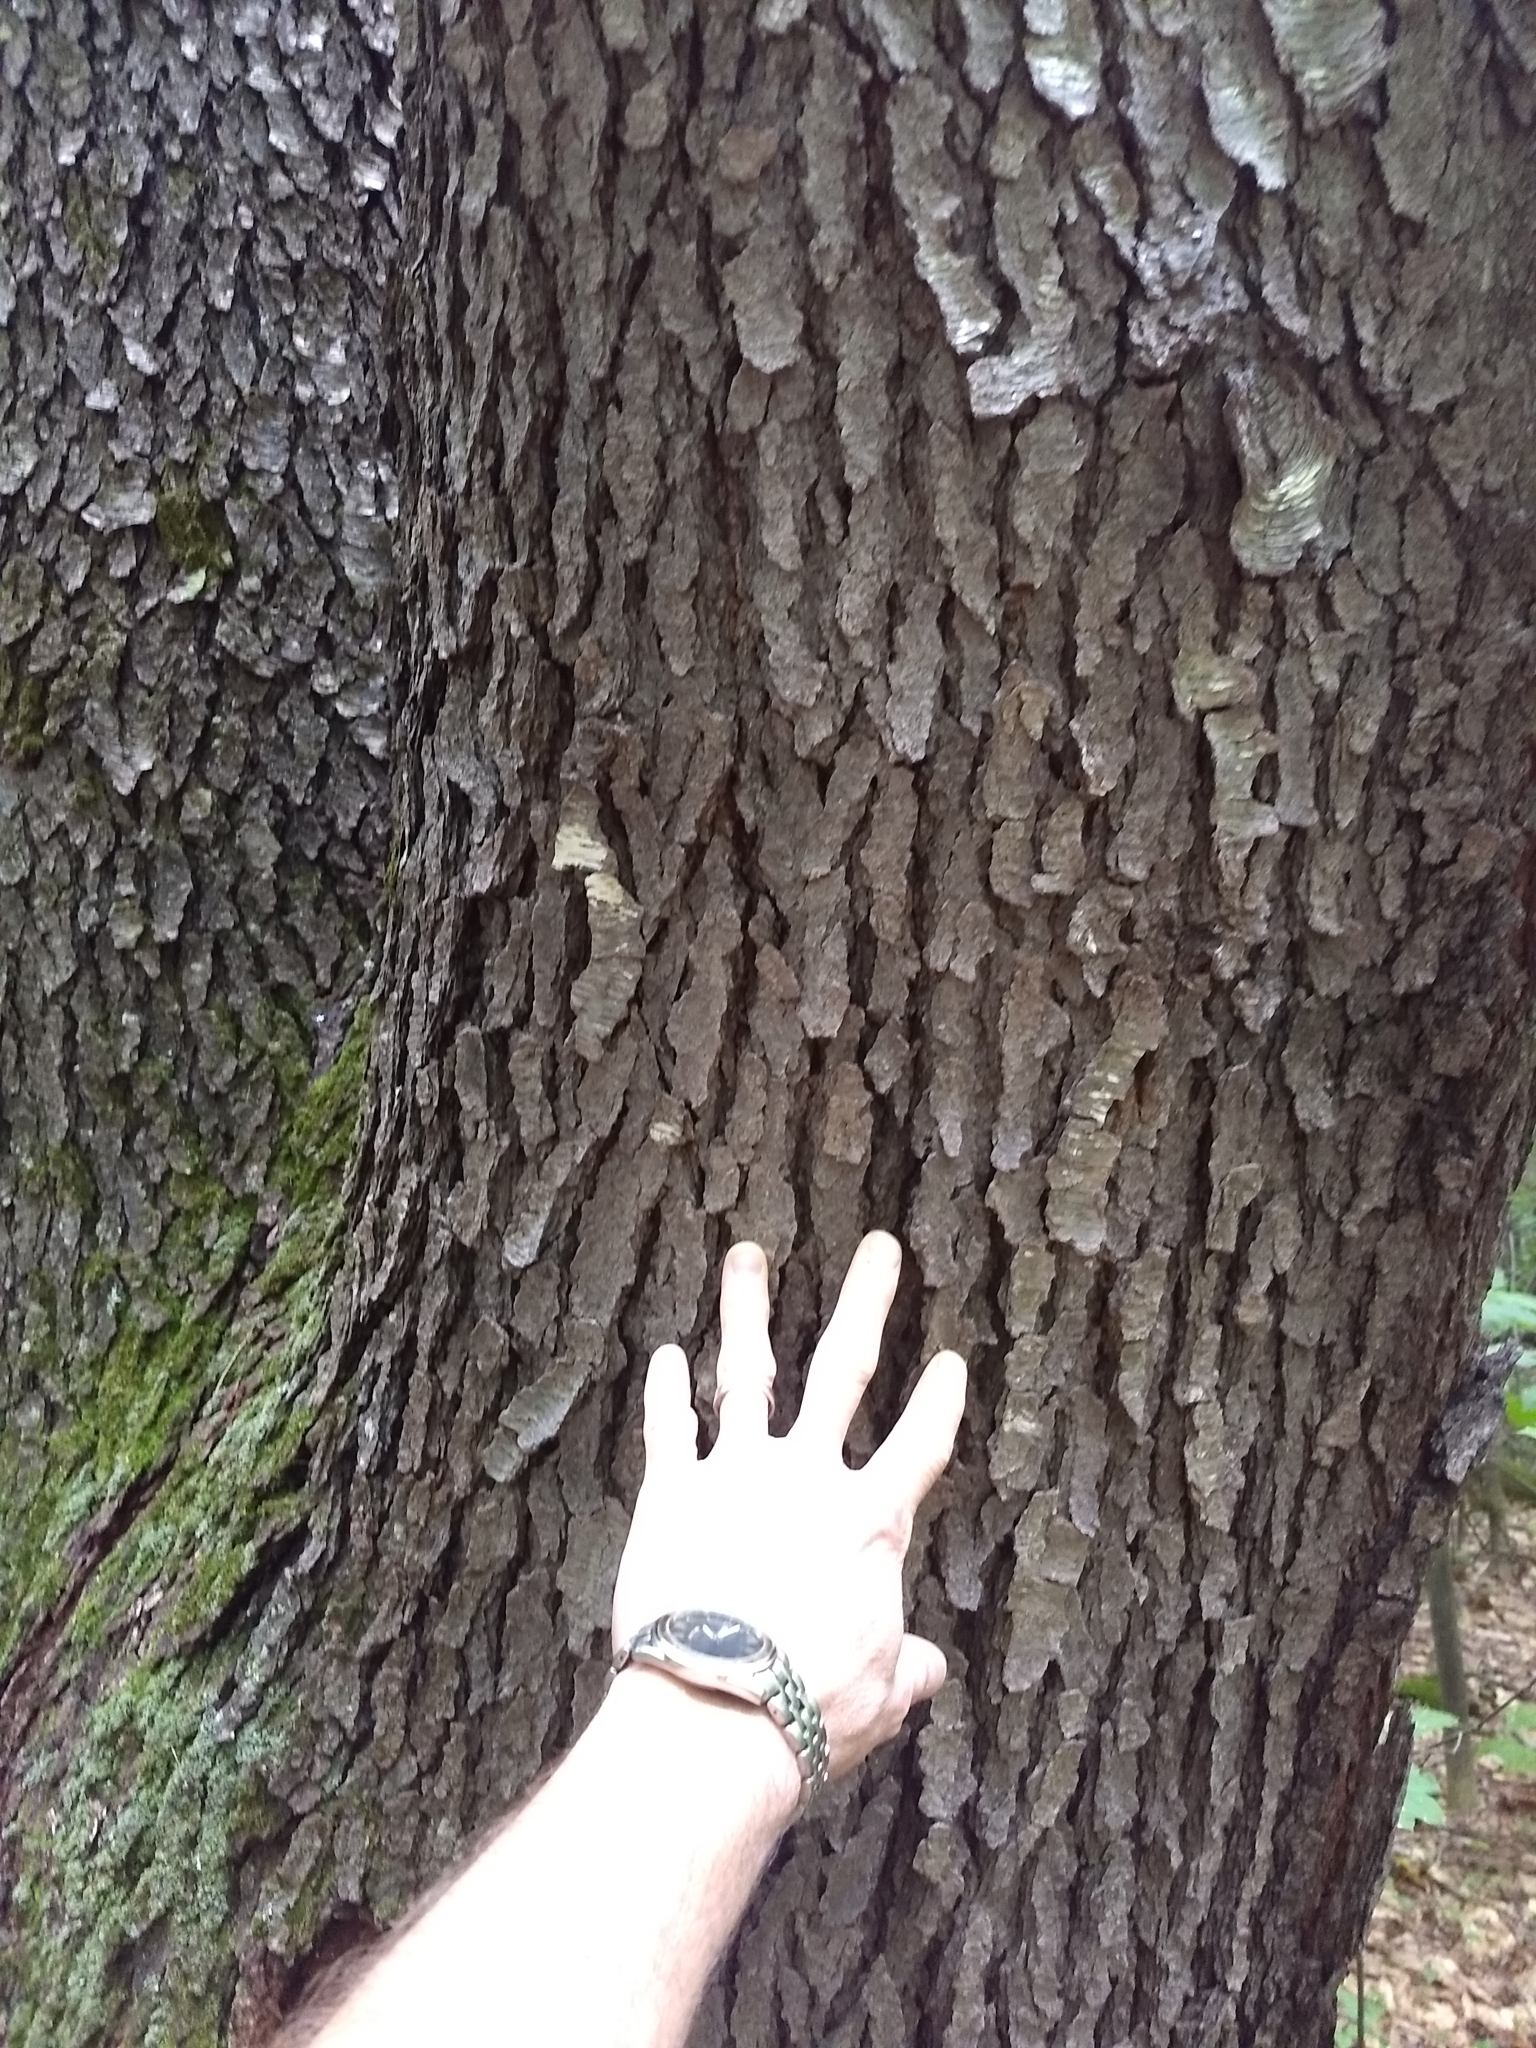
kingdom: Plantae
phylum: Tracheophyta
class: Magnoliopsida
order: Rosales
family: Rosaceae
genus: Prunus
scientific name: Prunus serotina
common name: Black cherry
